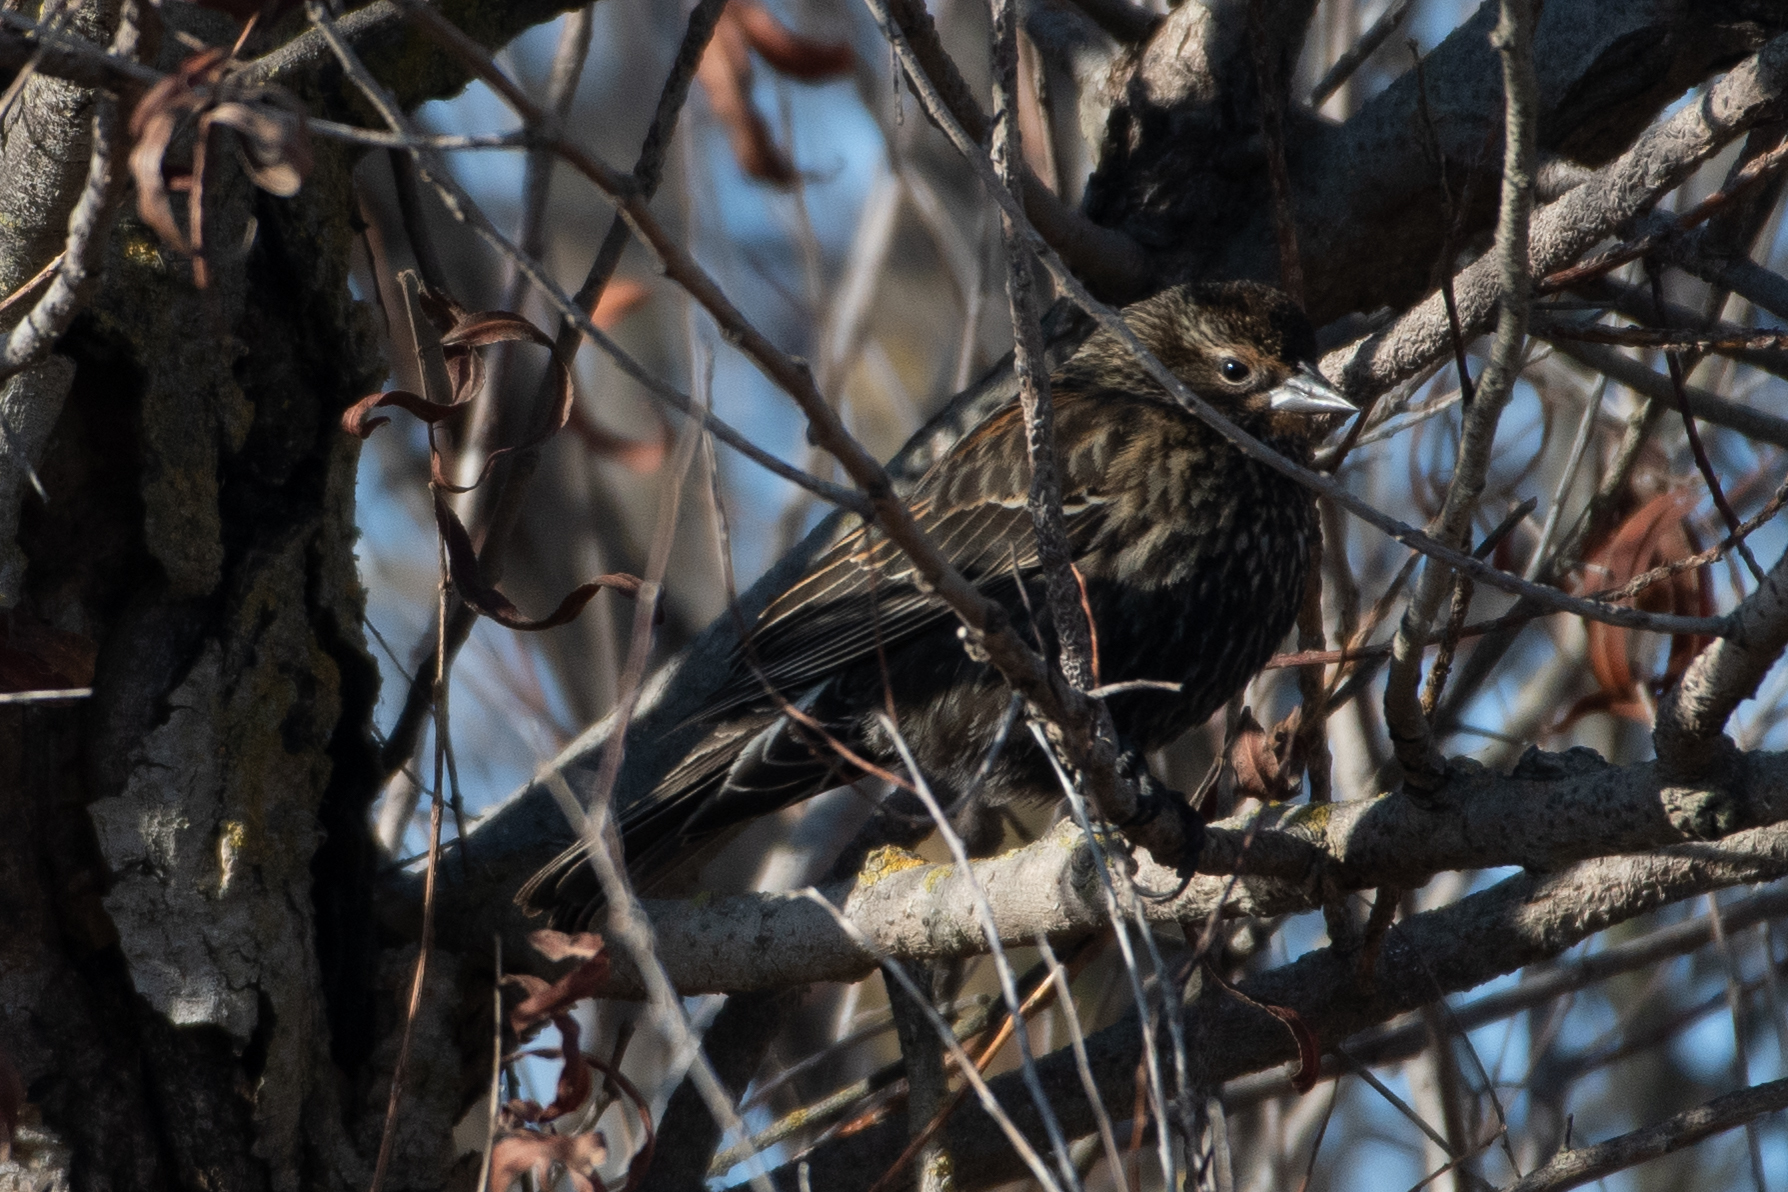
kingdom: Animalia
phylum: Chordata
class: Aves
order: Passeriformes
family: Icteridae
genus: Agelaius
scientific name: Agelaius phoeniceus
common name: Red-winged blackbird
